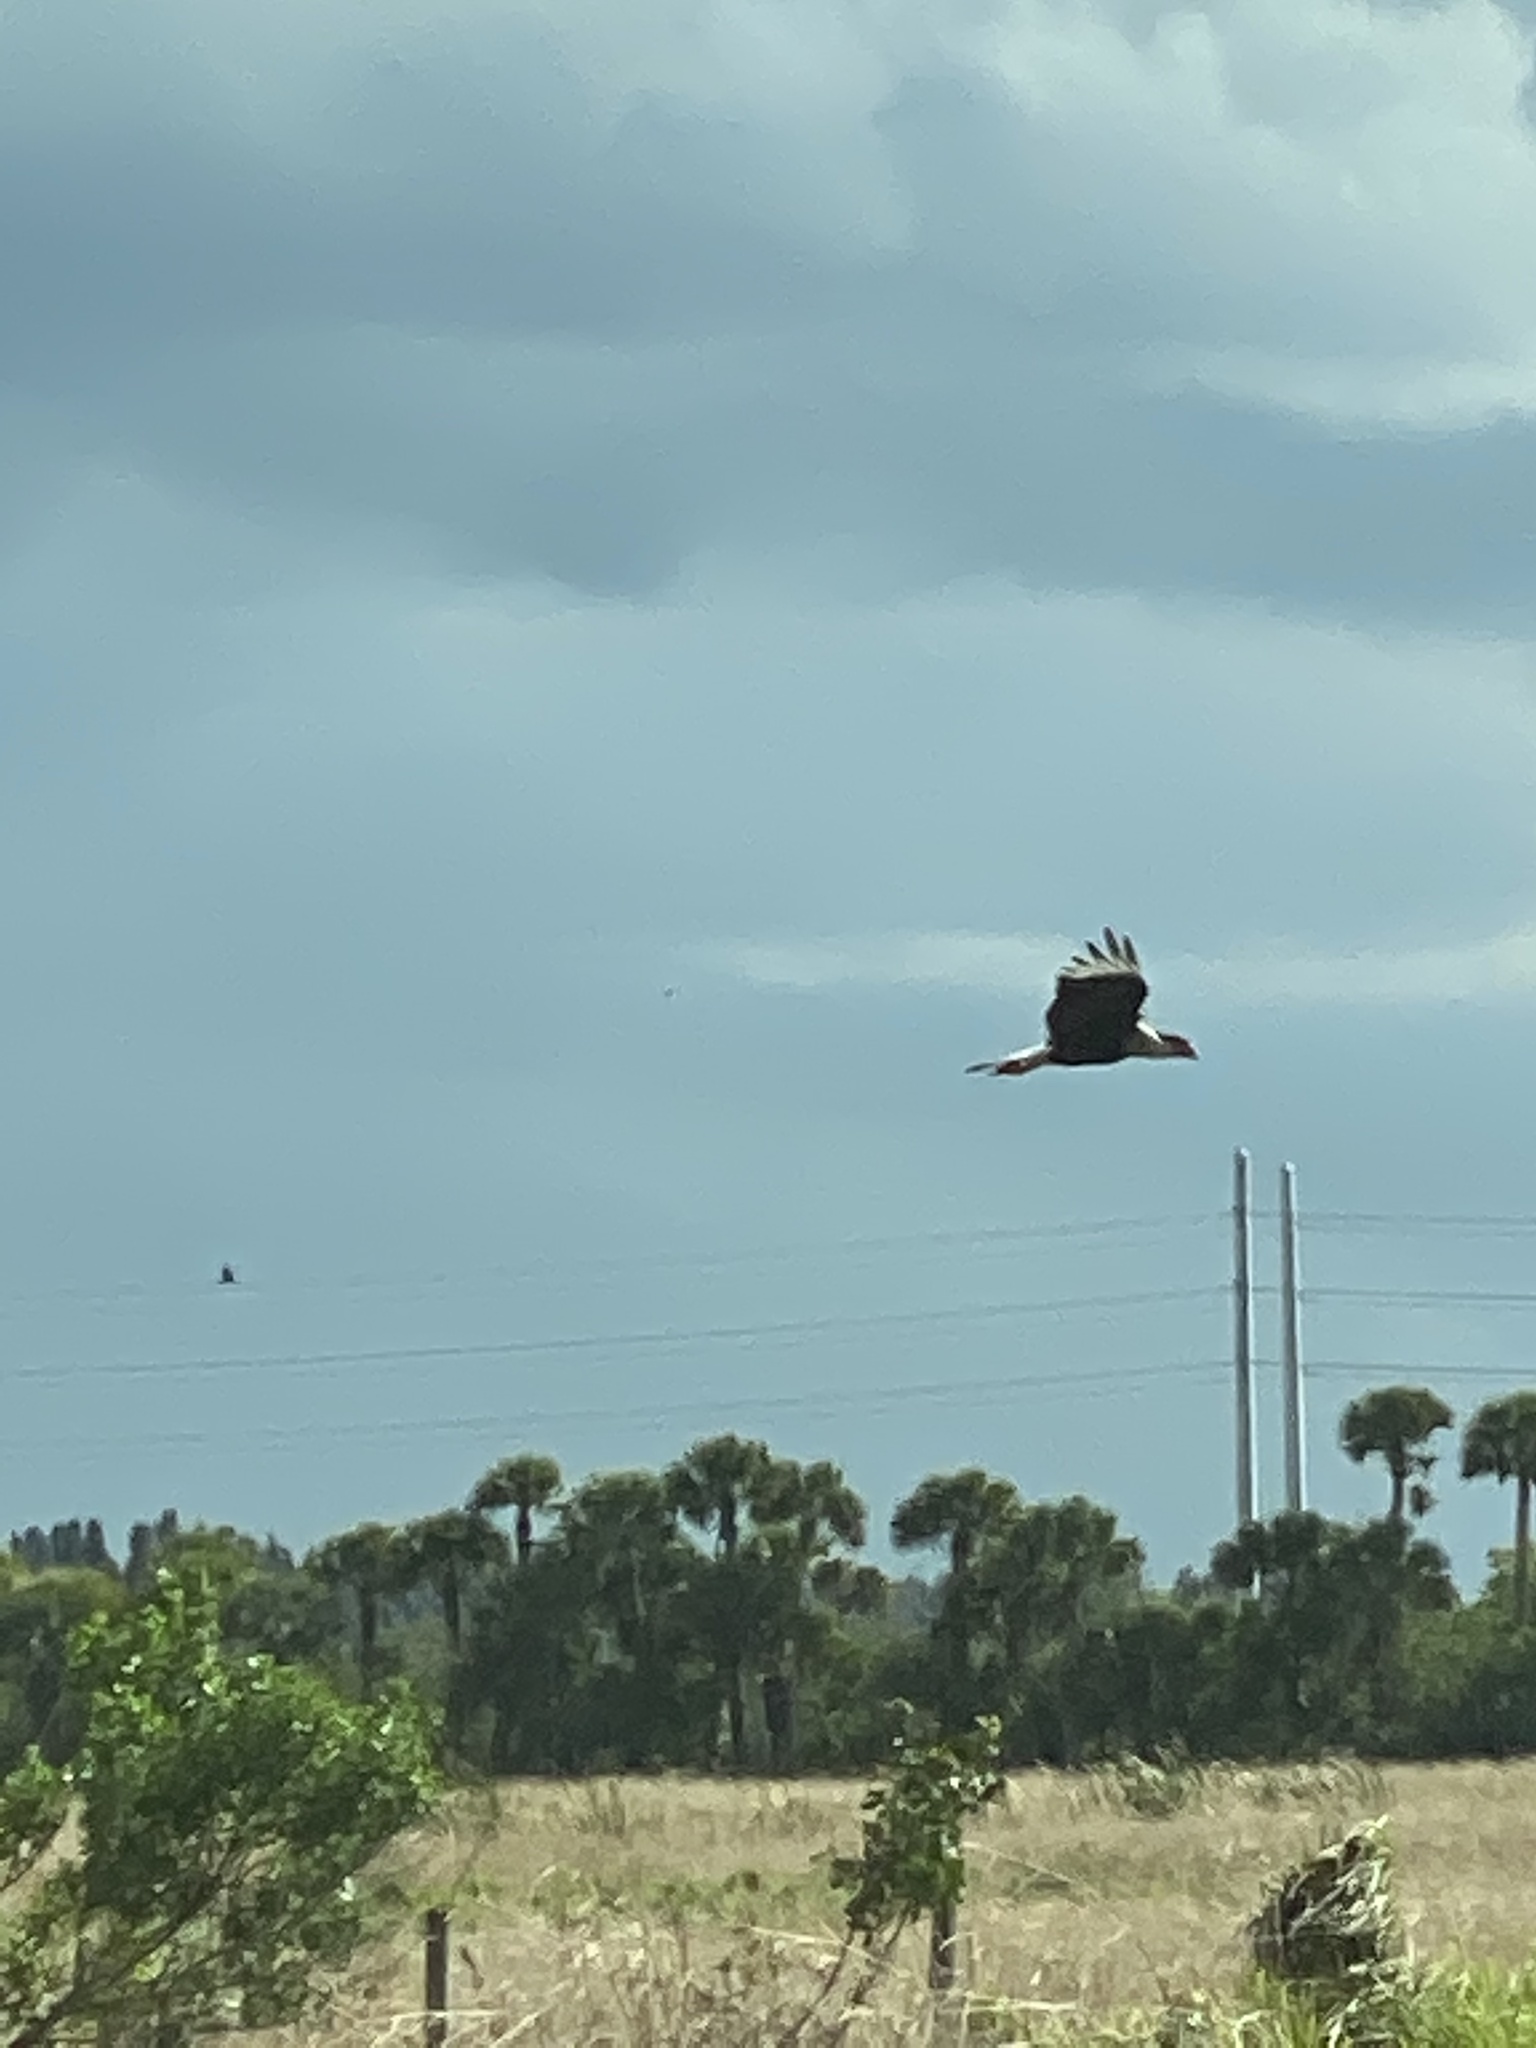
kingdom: Animalia
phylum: Chordata
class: Aves
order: Falconiformes
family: Falconidae
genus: Caracara
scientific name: Caracara plancus
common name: Southern caracara
